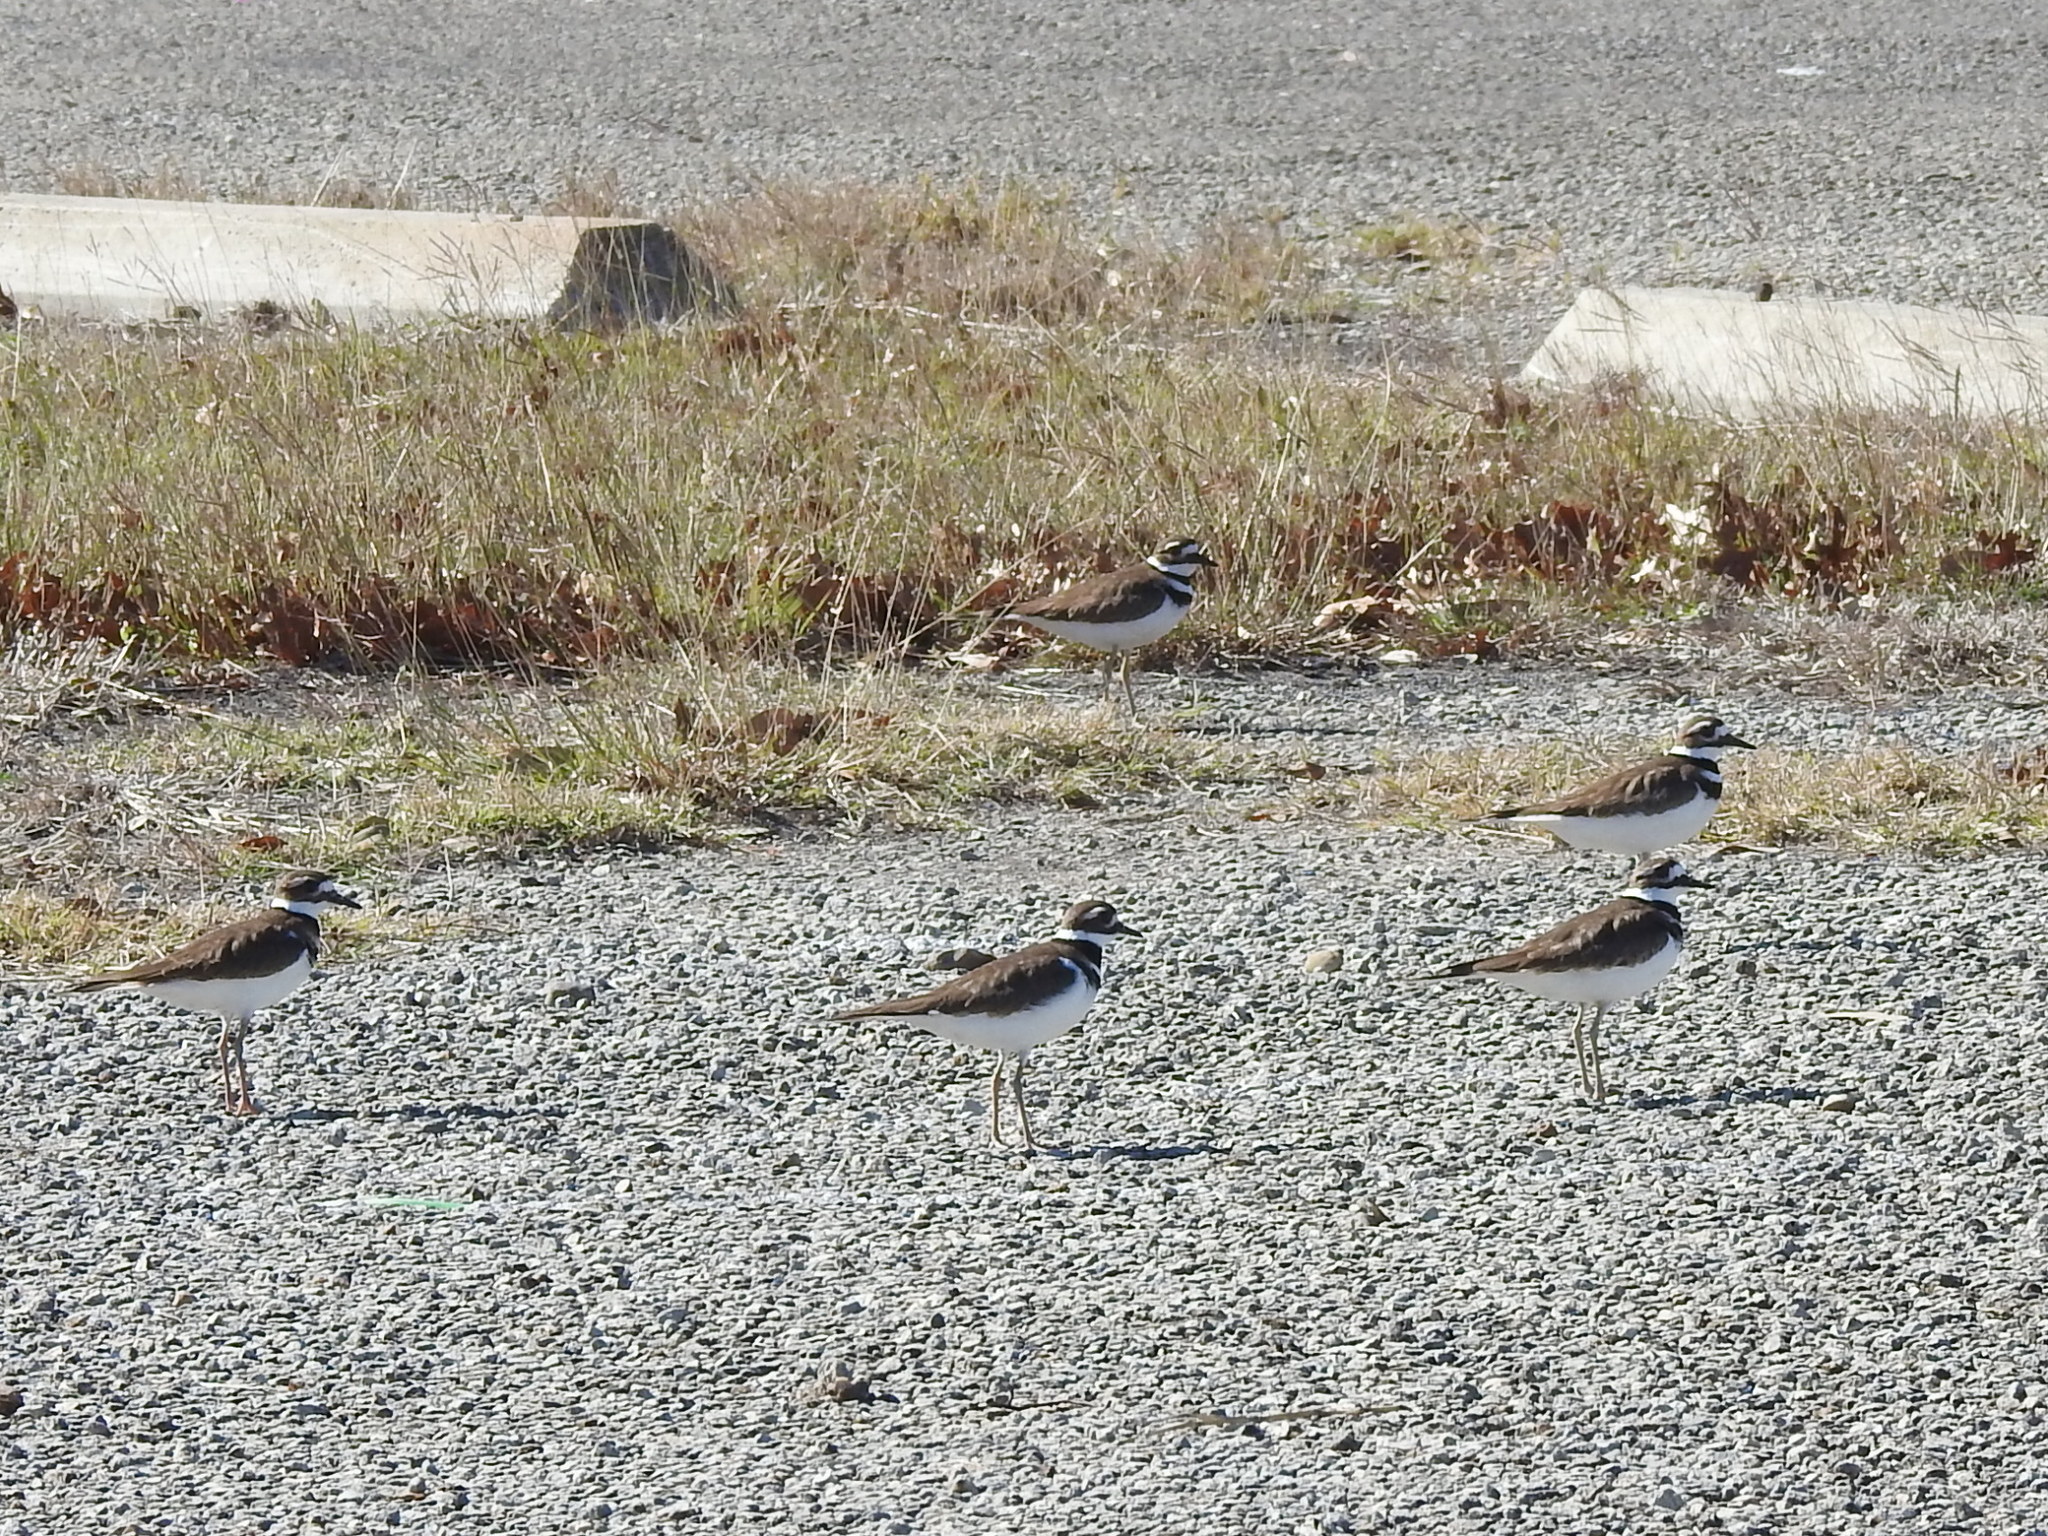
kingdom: Animalia
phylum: Chordata
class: Aves
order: Charadriiformes
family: Charadriidae
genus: Charadrius
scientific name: Charadrius vociferus
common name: Killdeer
